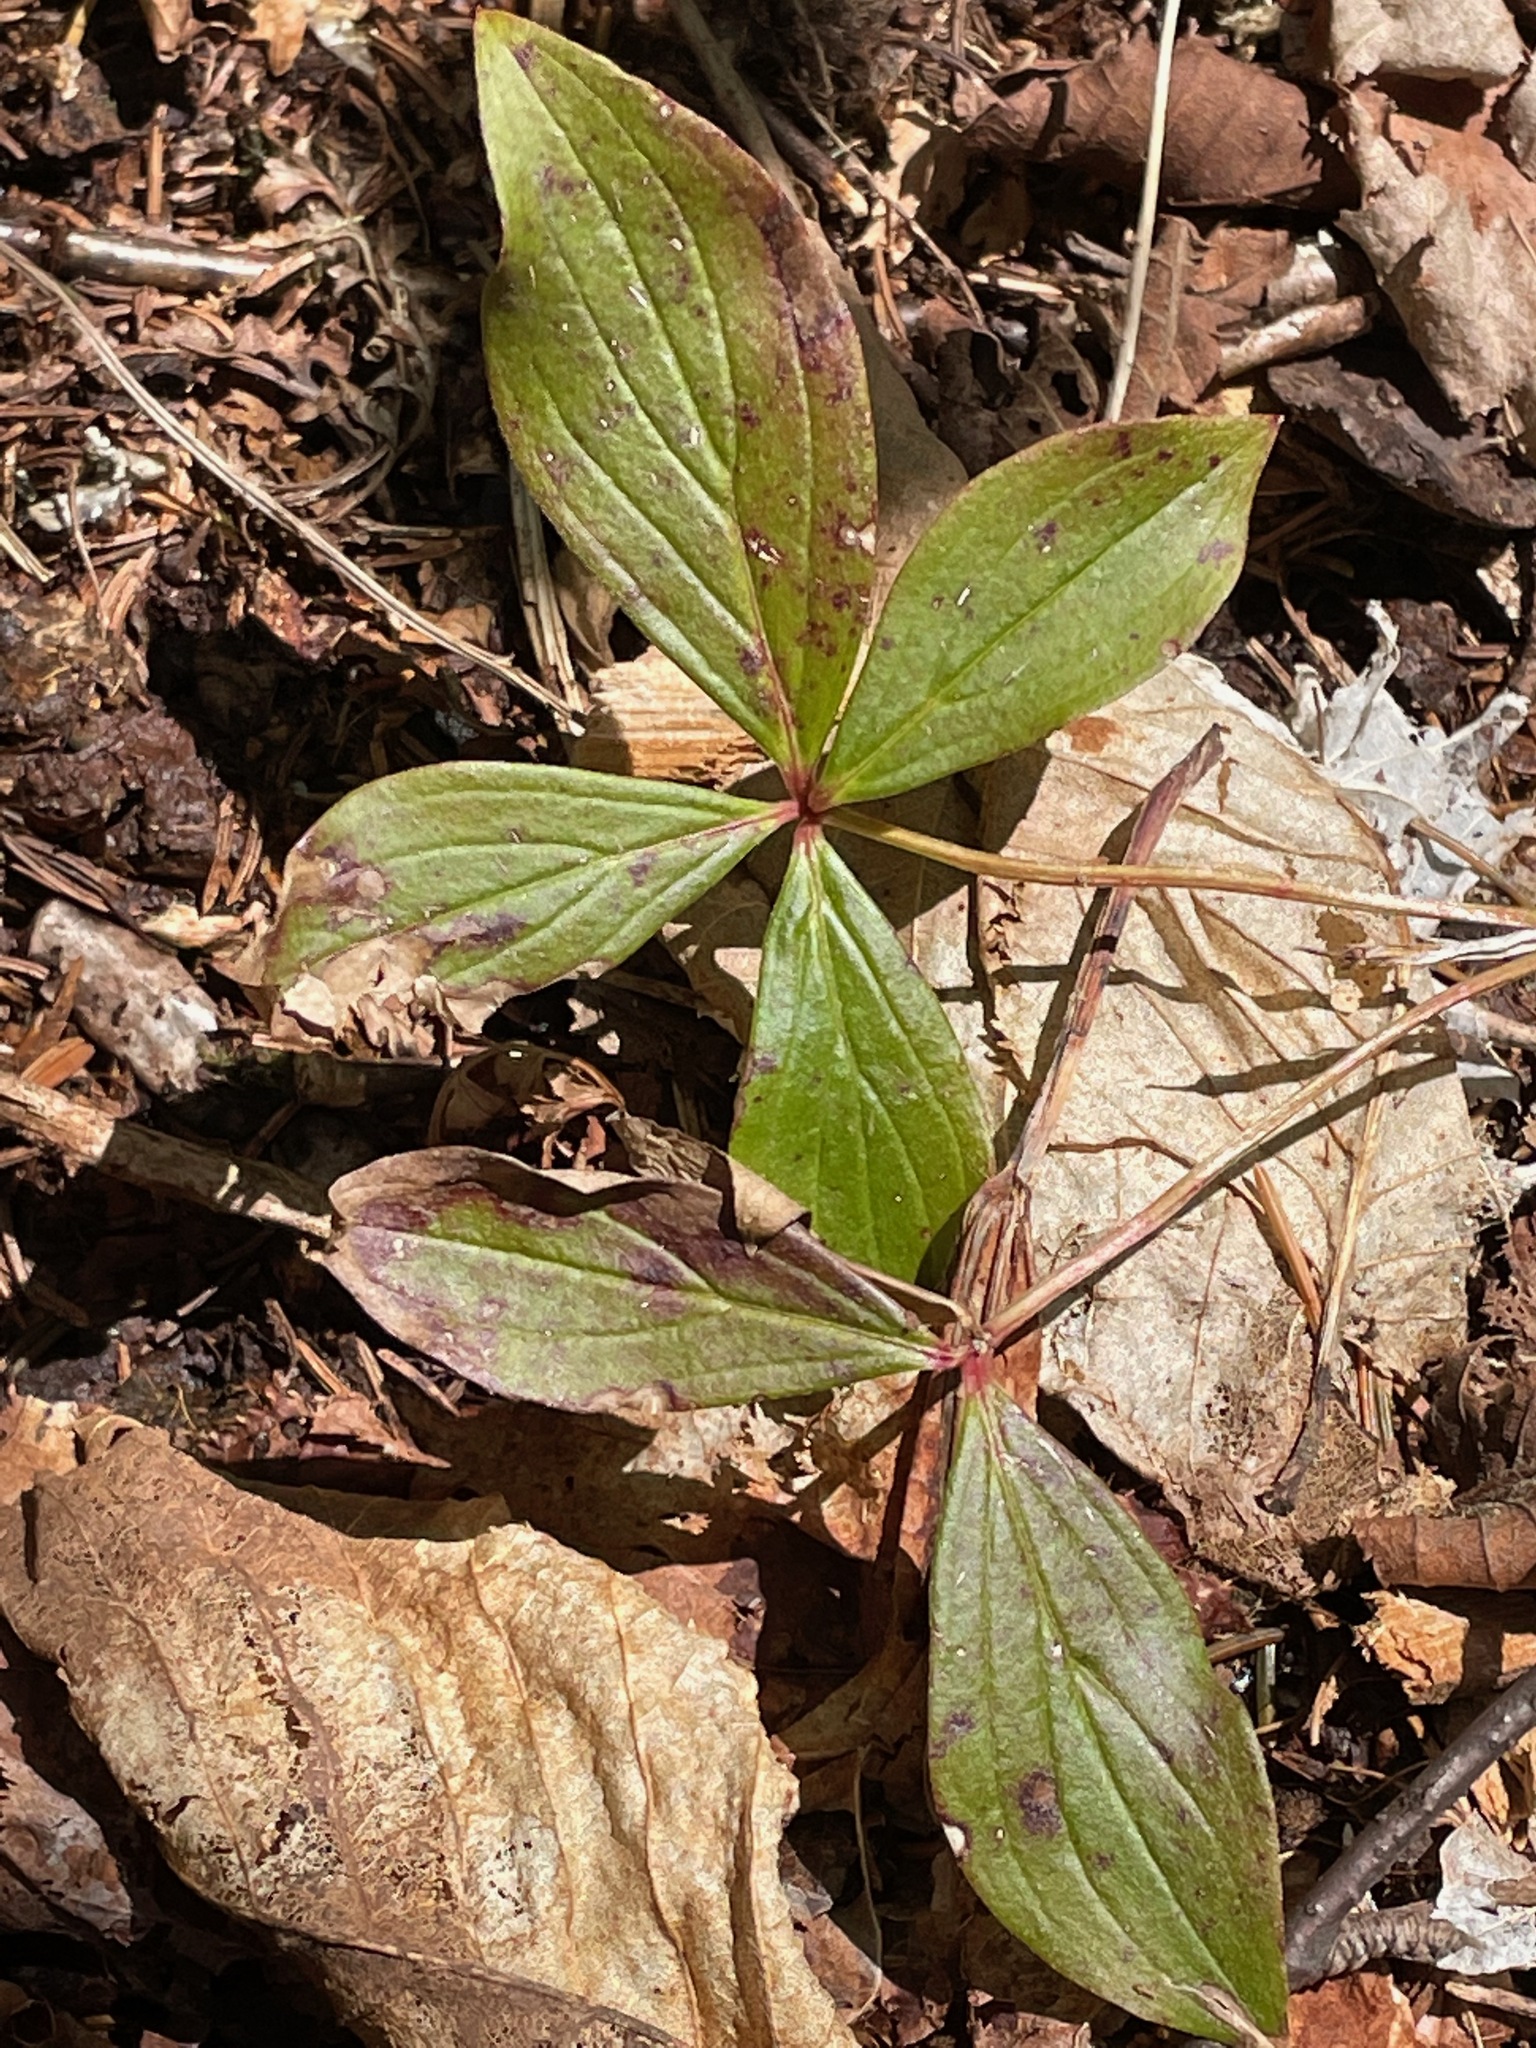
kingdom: Plantae
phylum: Tracheophyta
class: Magnoliopsida
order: Cornales
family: Cornaceae
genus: Cornus
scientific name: Cornus canadensis
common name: Creeping dogwood
